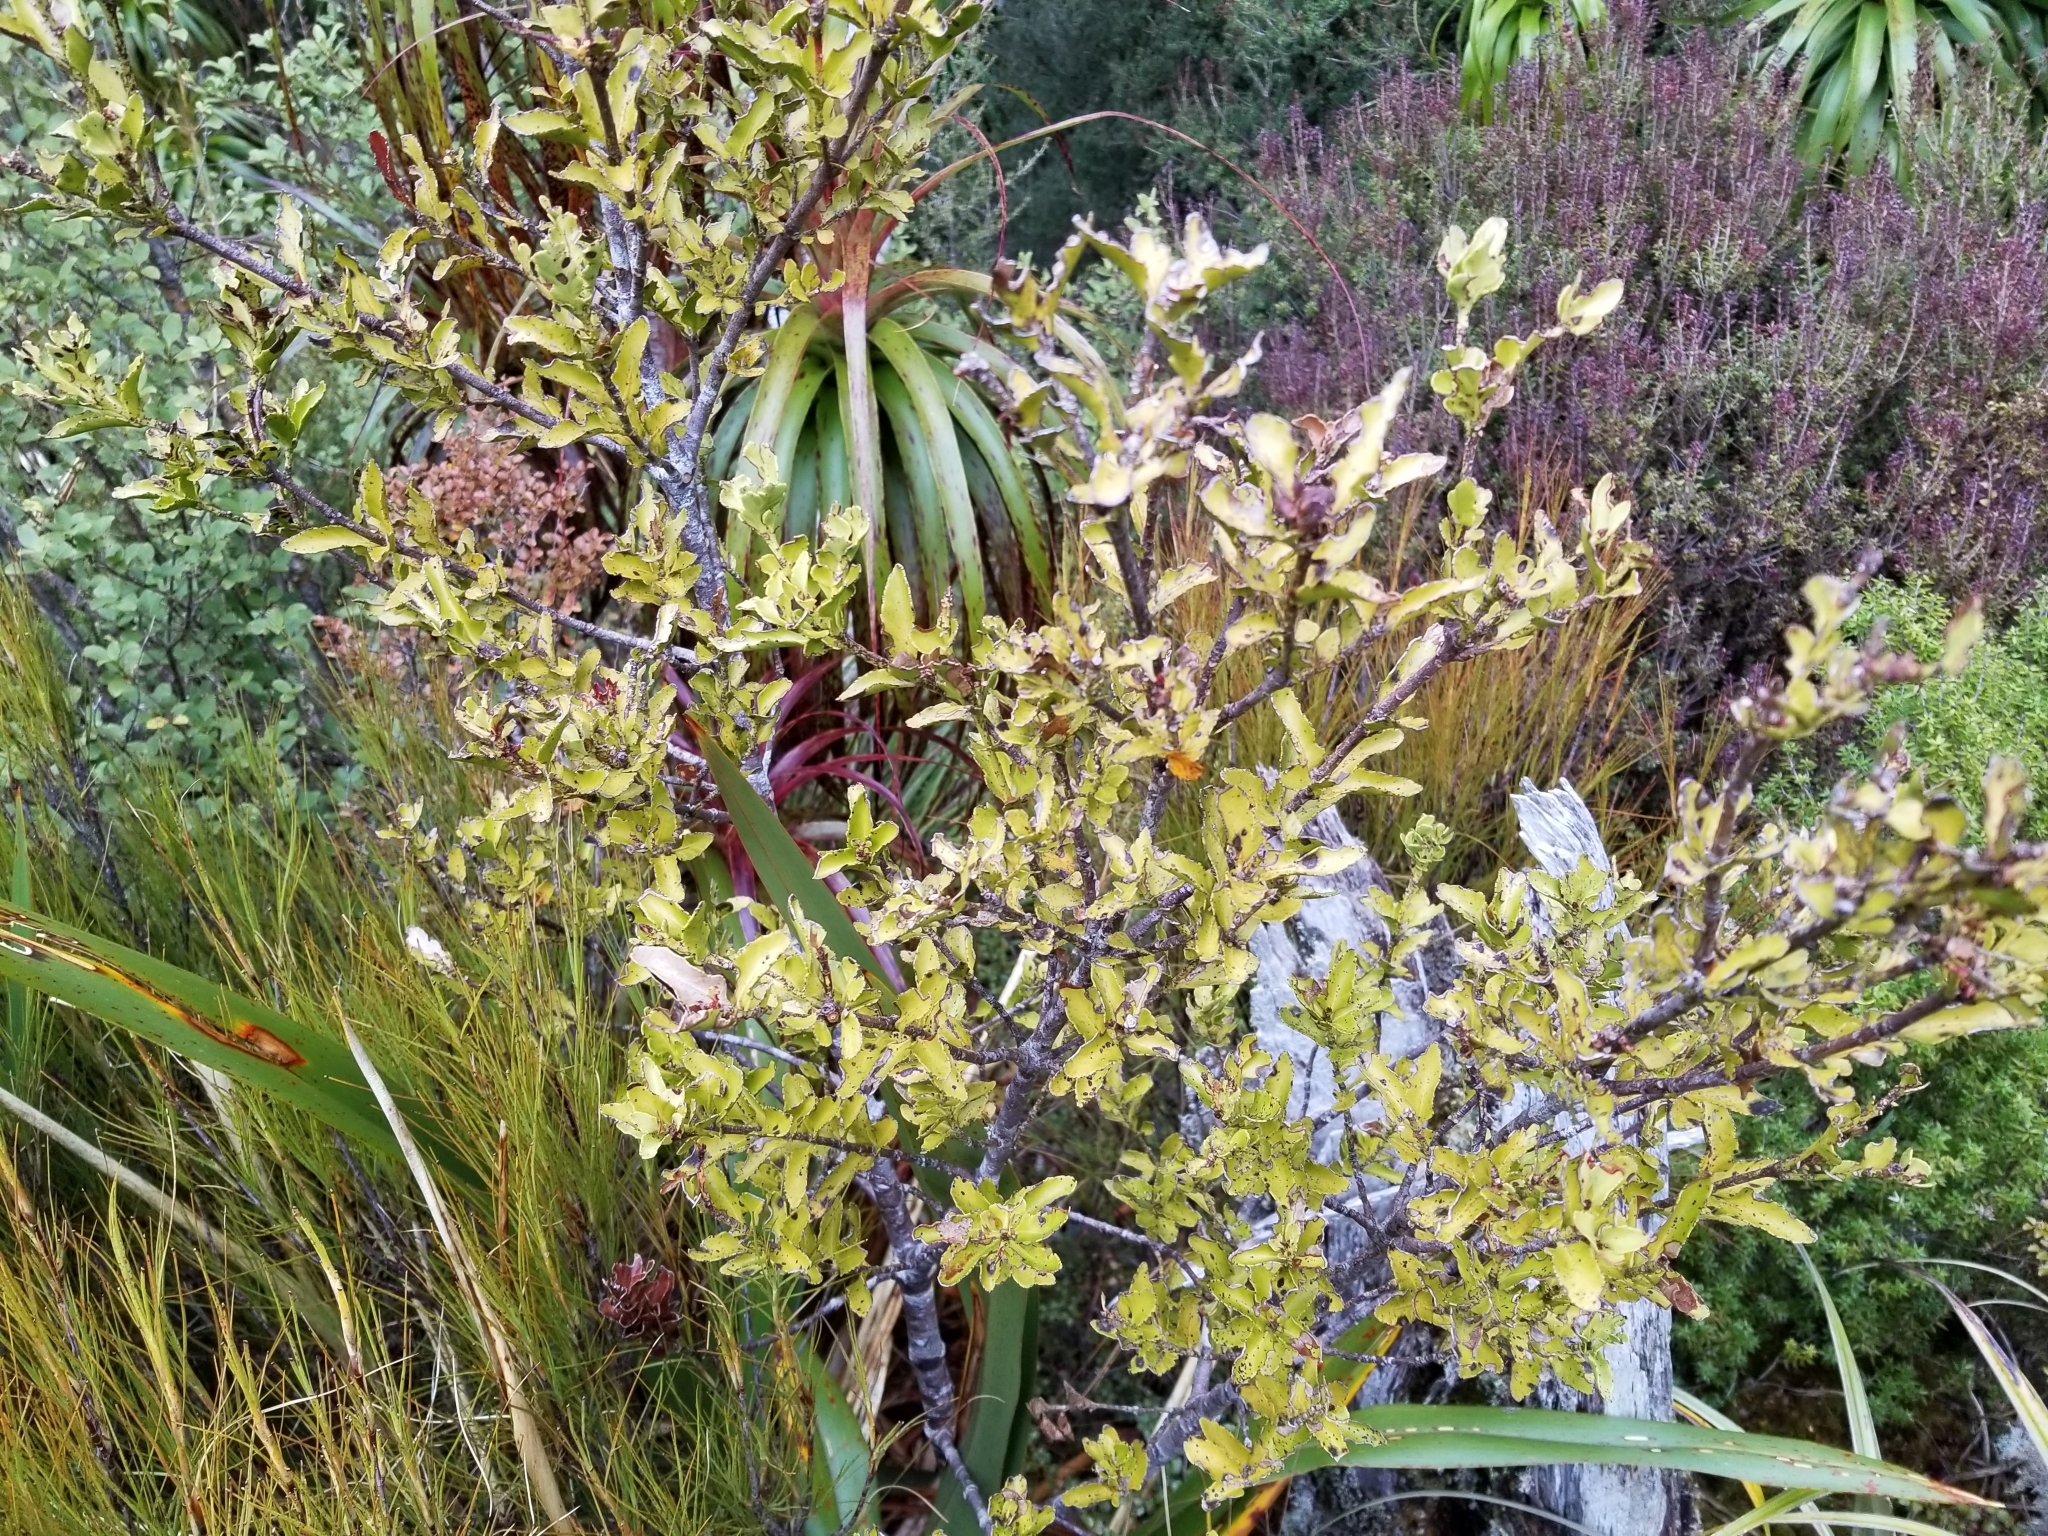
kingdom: Plantae
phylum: Tracheophyta
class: Pinopsida
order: Pinales
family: Phyllocladaceae
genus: Phyllocladus
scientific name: Phyllocladus trichomanoides
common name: Celery pine
